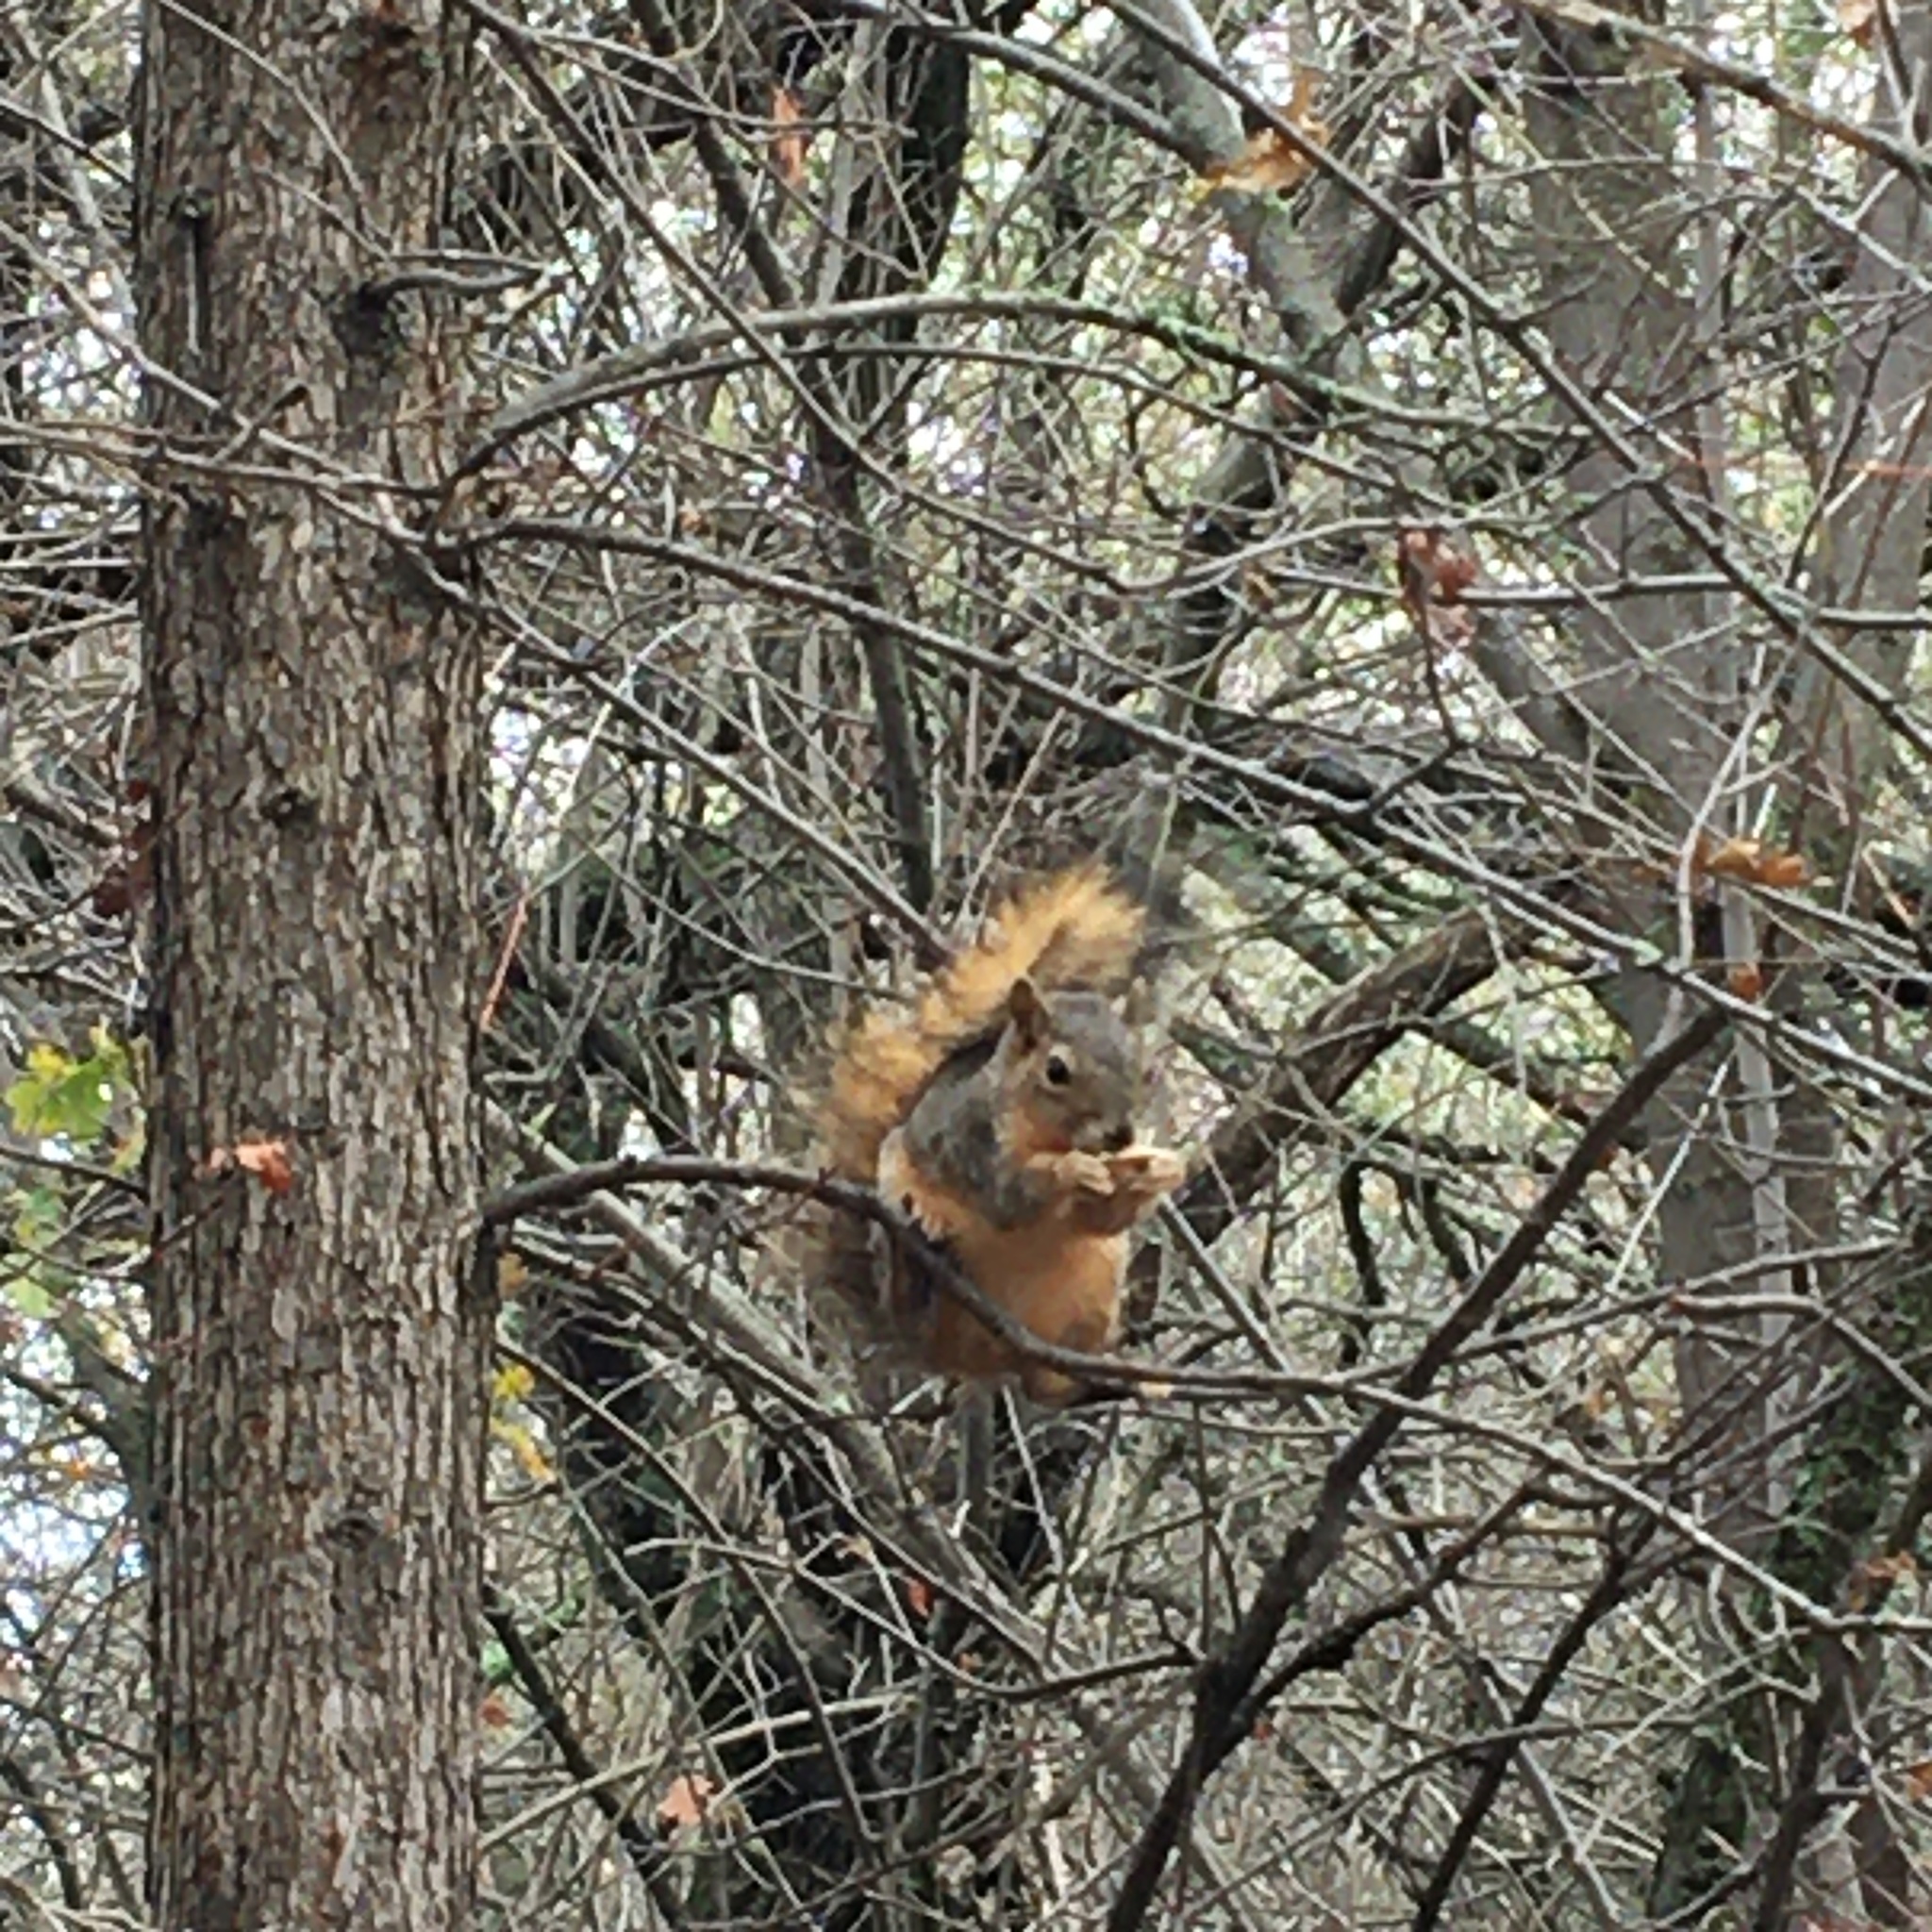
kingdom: Animalia
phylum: Chordata
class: Mammalia
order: Rodentia
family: Sciuridae
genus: Sciurus
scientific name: Sciurus niger
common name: Fox squirrel
